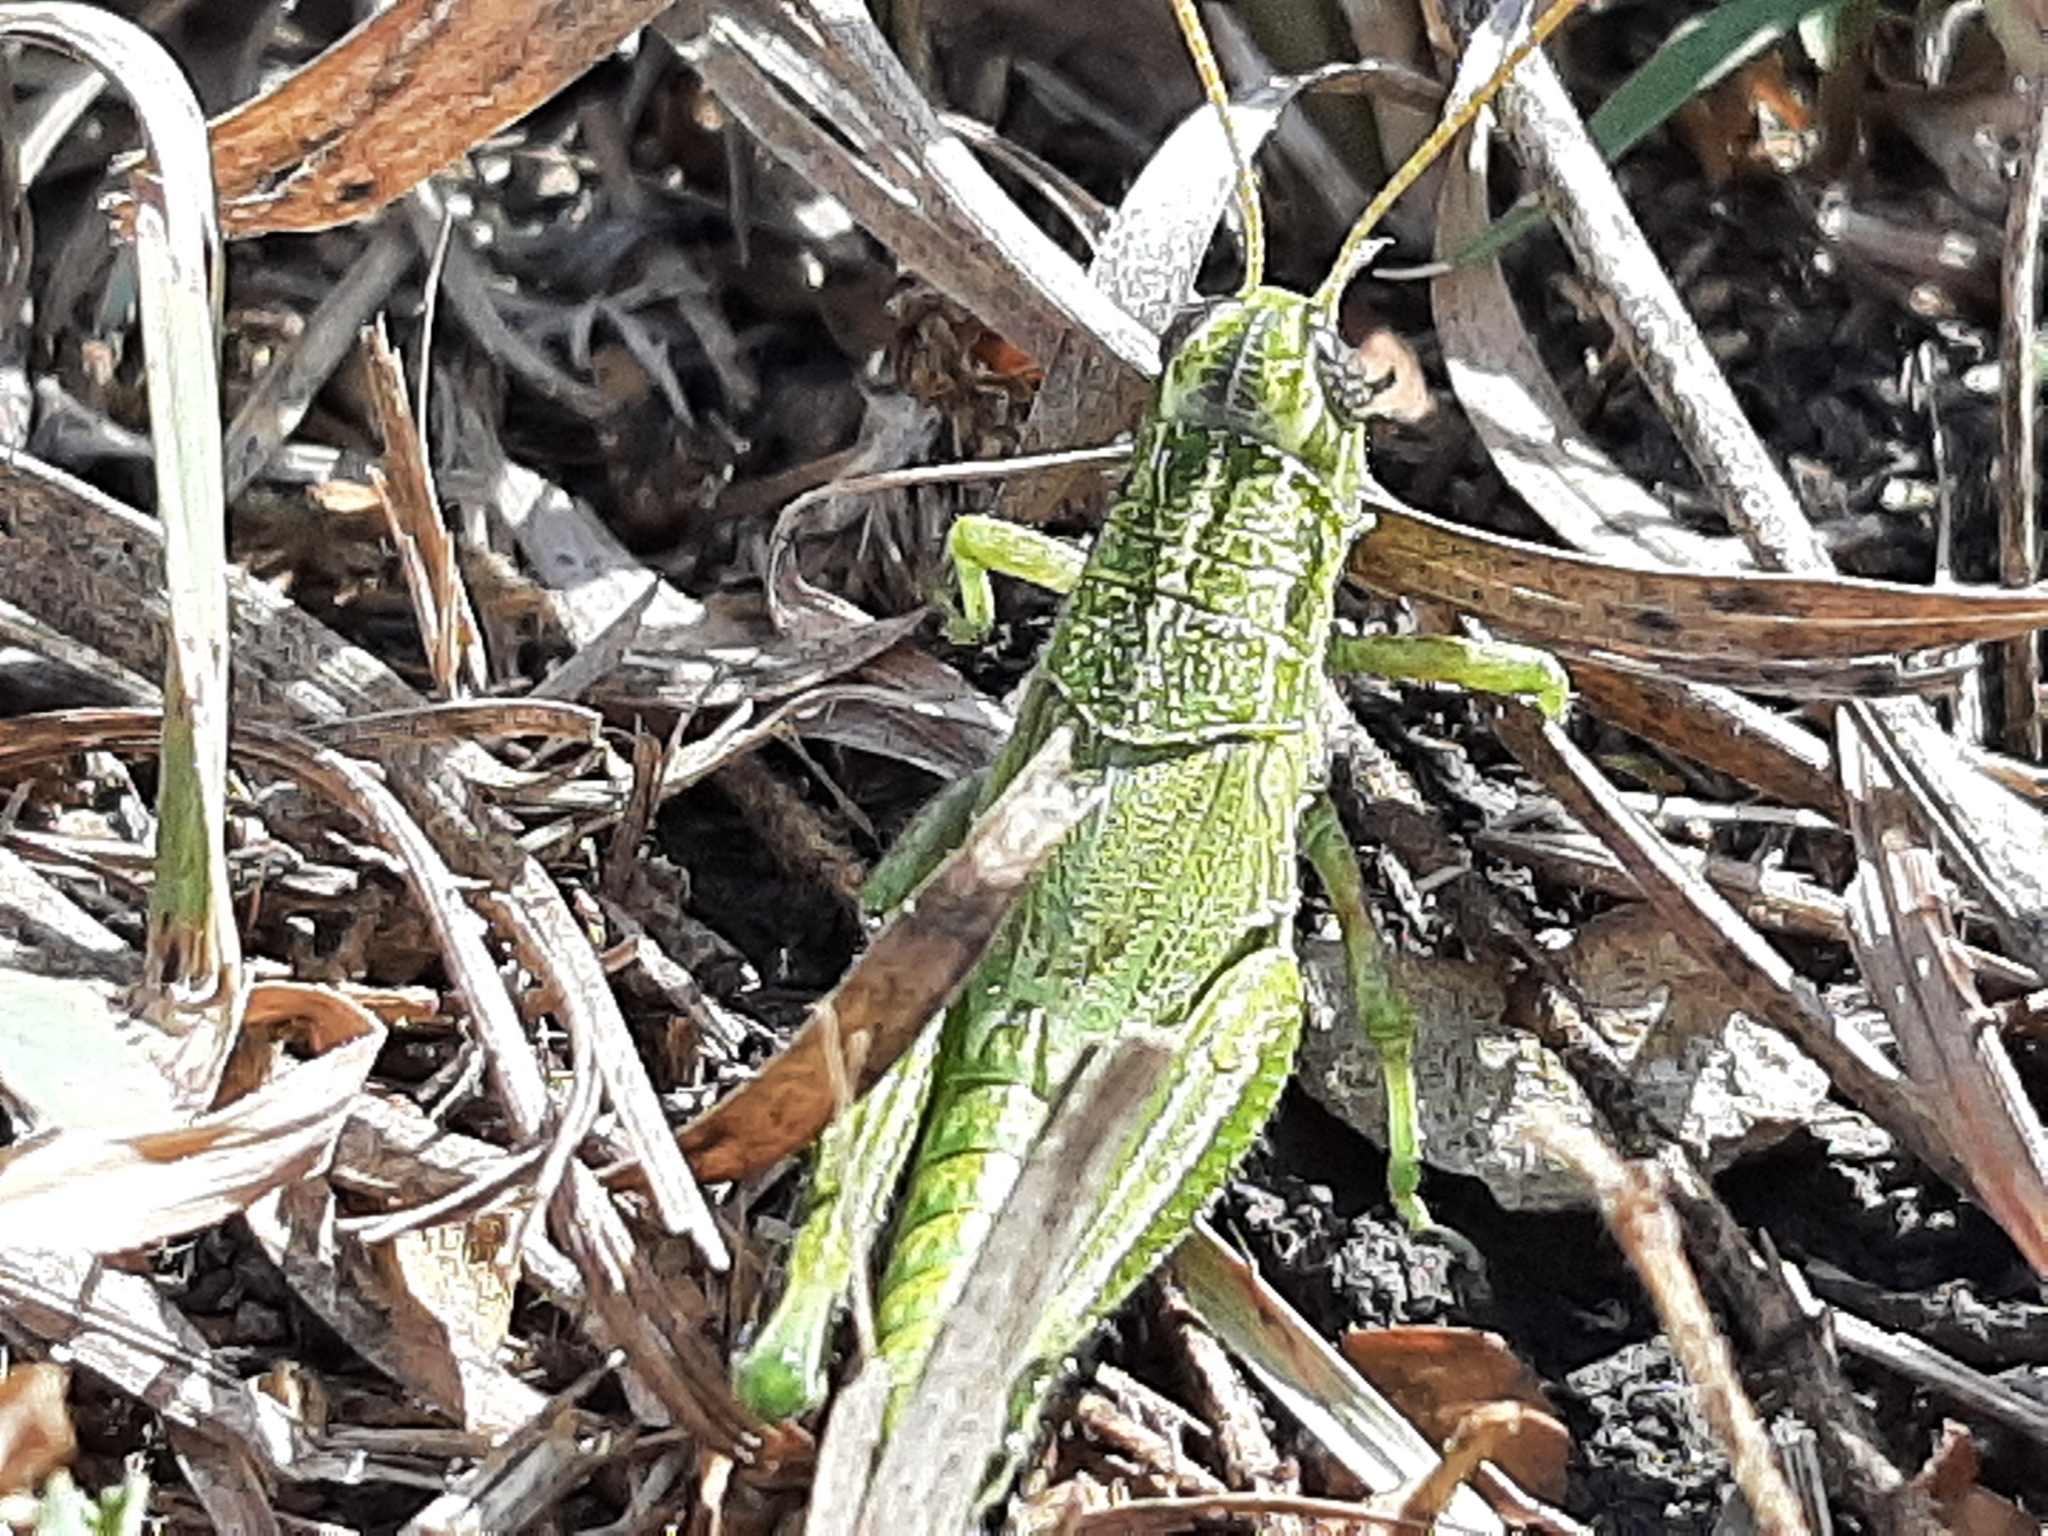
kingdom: Animalia
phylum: Arthropoda
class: Insecta
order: Orthoptera
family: Acrididae
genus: Campylacantha
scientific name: Campylacantha olivacea
